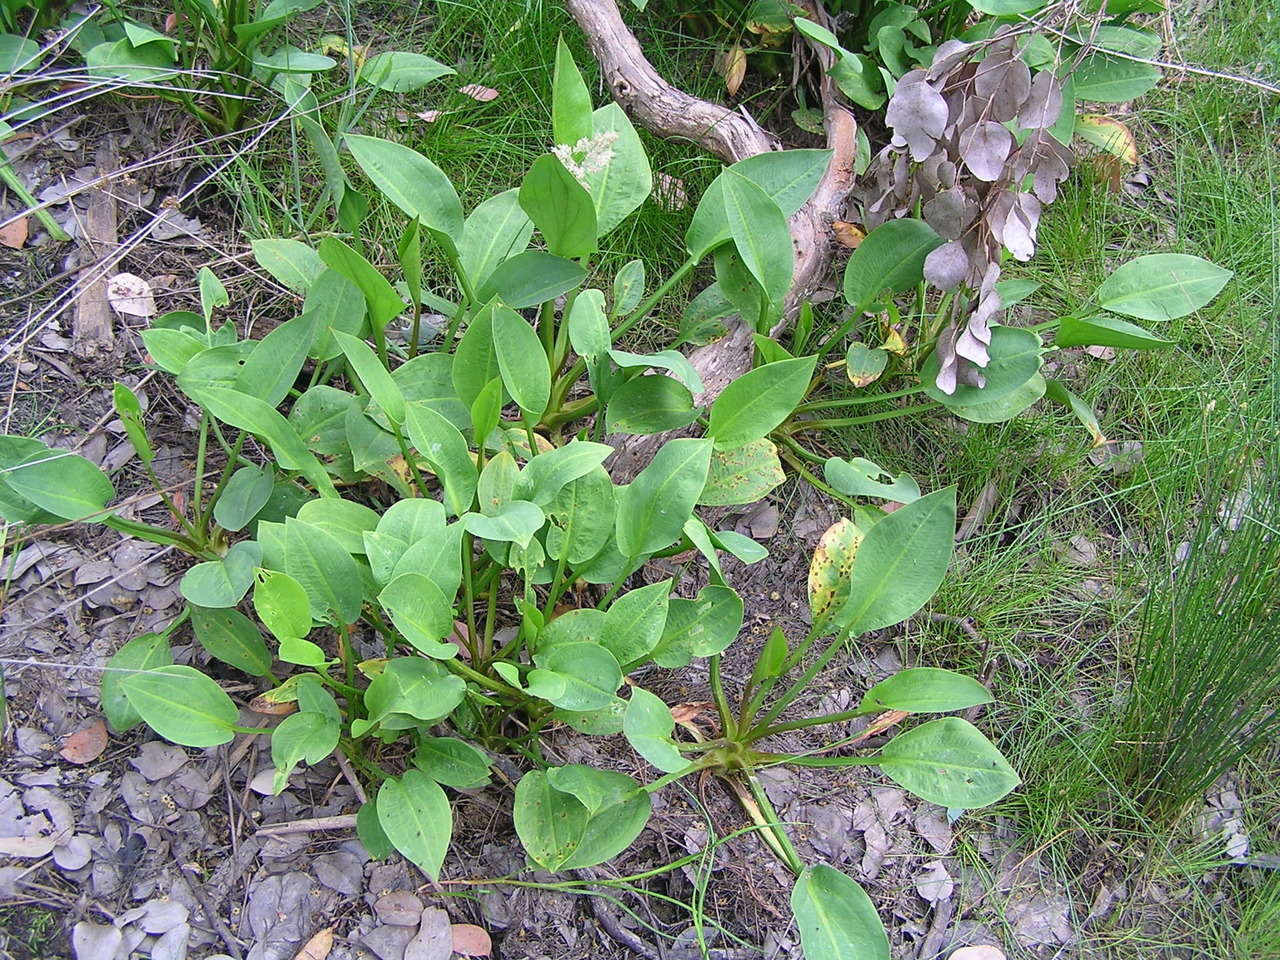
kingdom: Plantae
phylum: Tracheophyta
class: Liliopsida
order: Alismatales
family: Alismataceae
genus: Alisma
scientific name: Alisma plantago-aquatica
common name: Water-plantain
